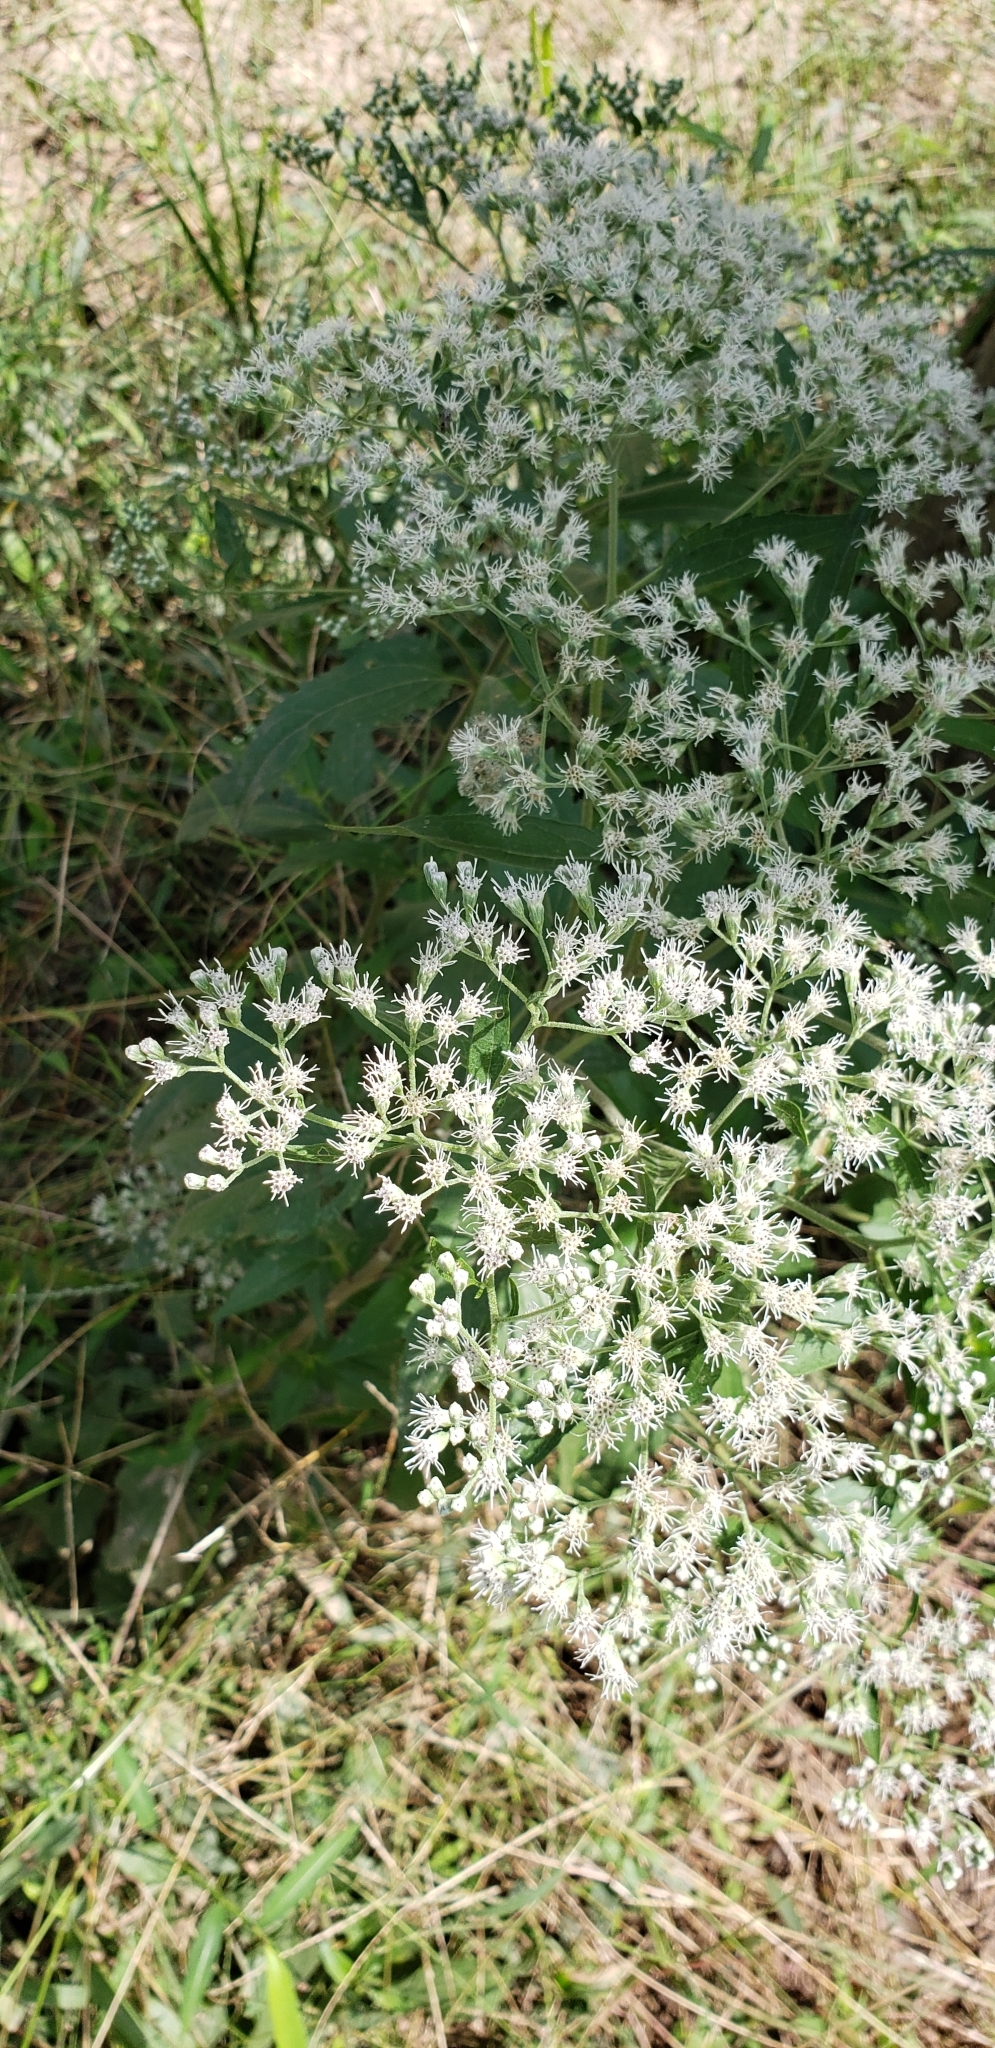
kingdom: Plantae
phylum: Tracheophyta
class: Magnoliopsida
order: Asterales
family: Asteraceae
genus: Eupatorium
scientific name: Eupatorium serotinum
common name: Late boneset
